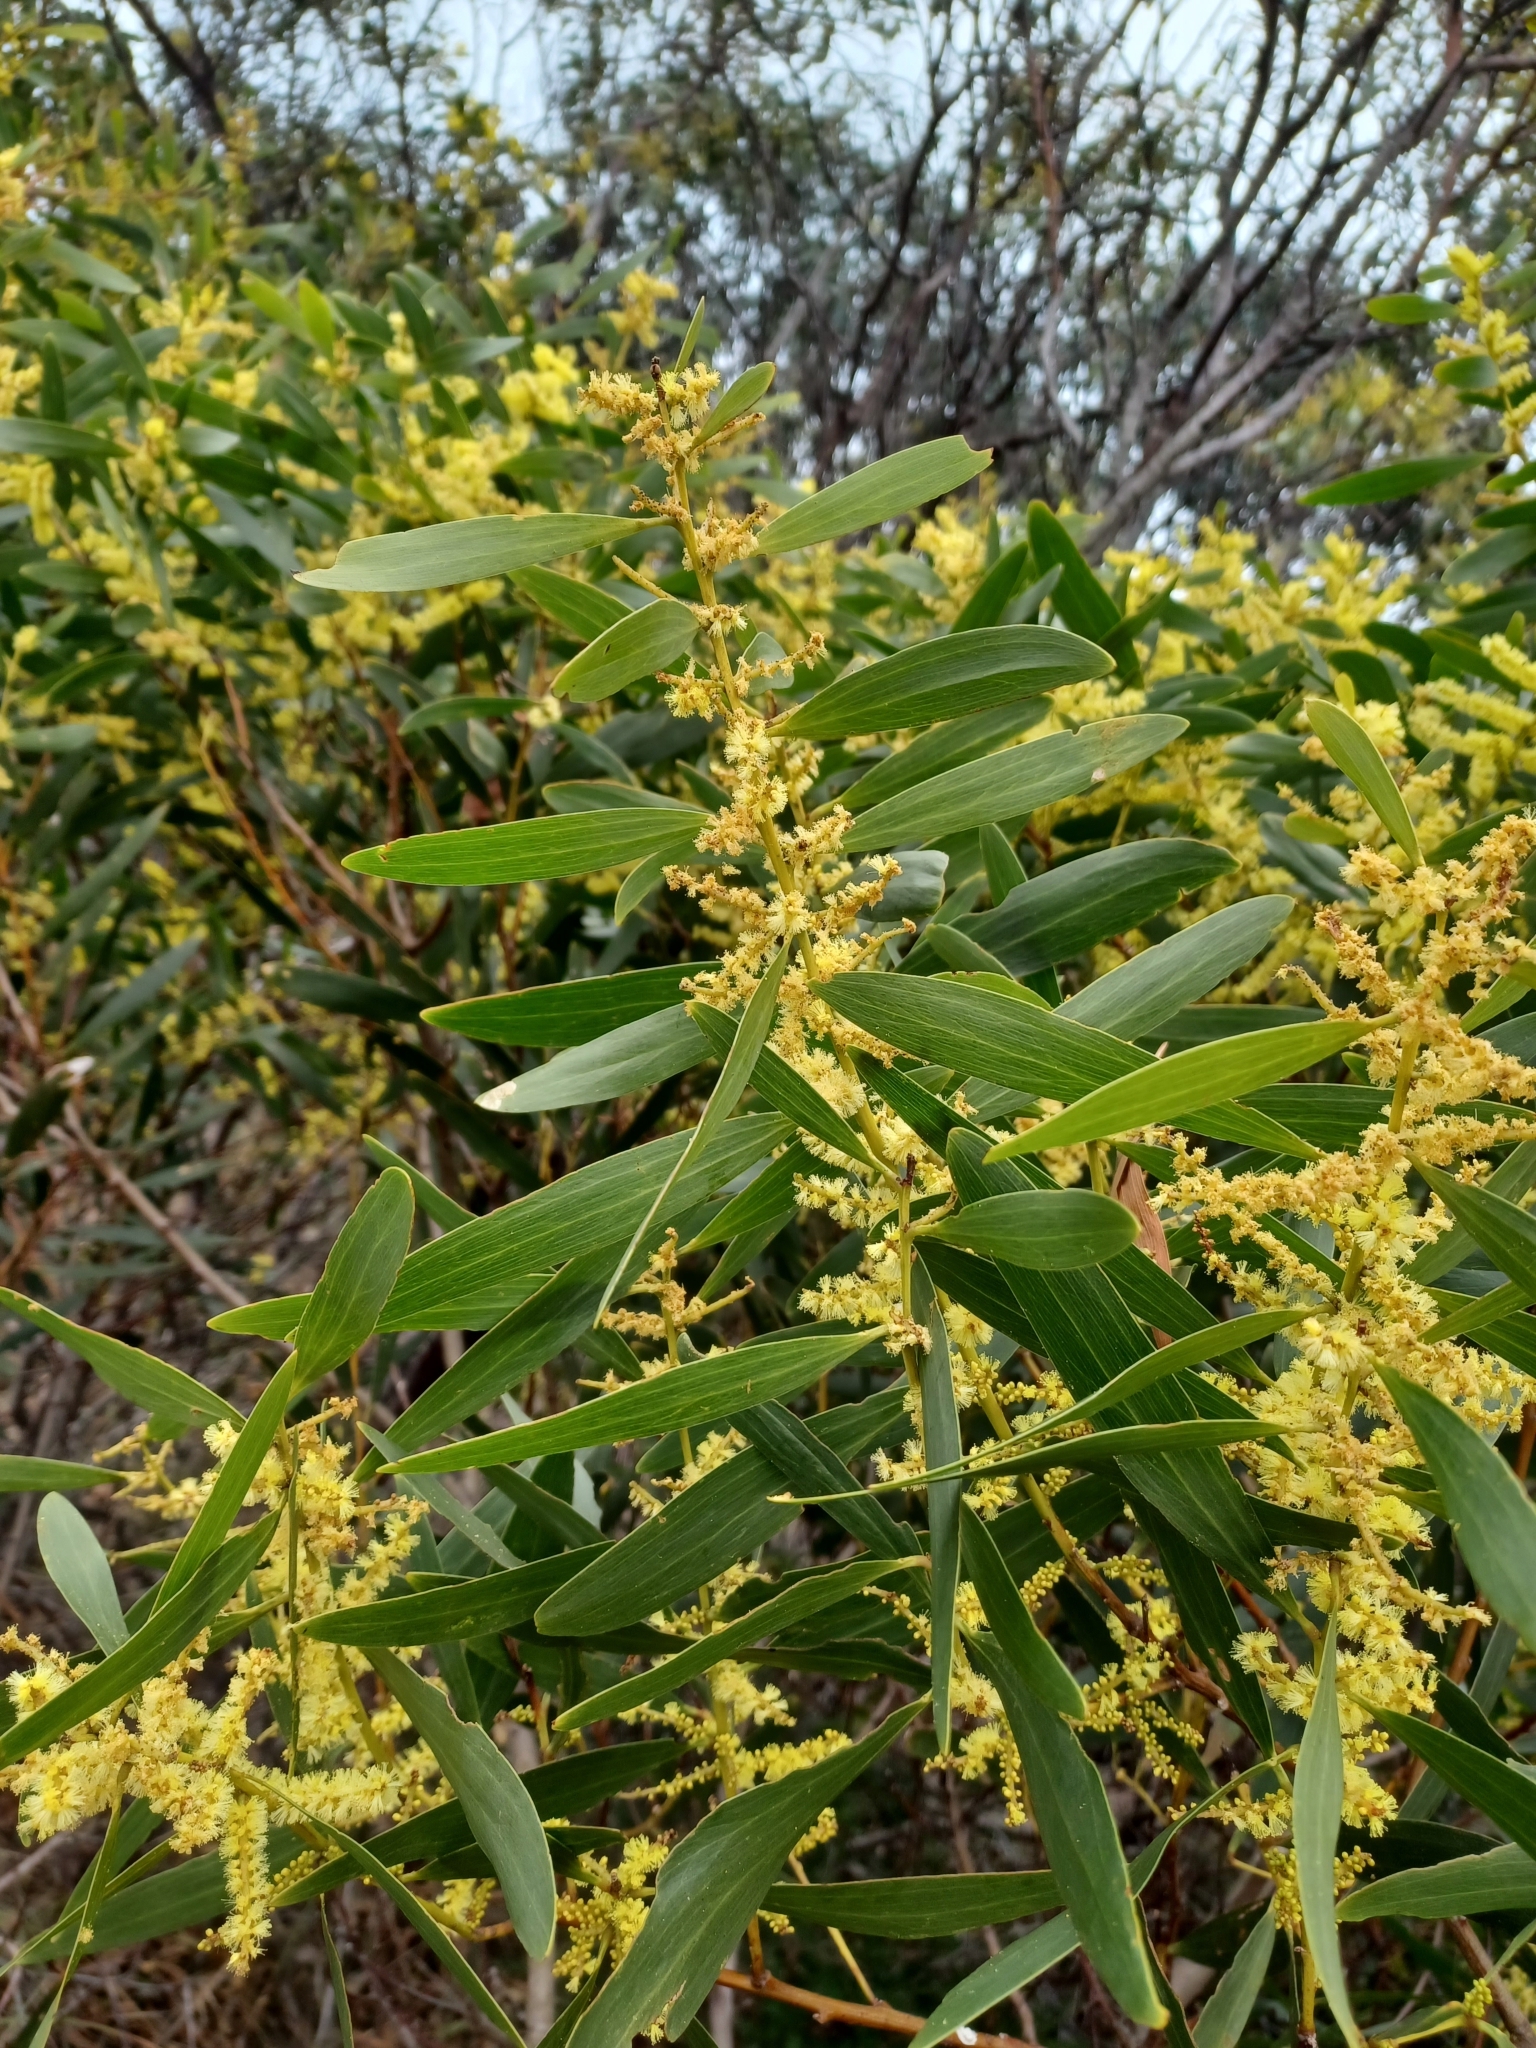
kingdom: Plantae
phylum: Tracheophyta
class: Magnoliopsida
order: Fabales
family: Fabaceae
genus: Acacia
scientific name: Acacia longifolia
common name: Sydney golden wattle
